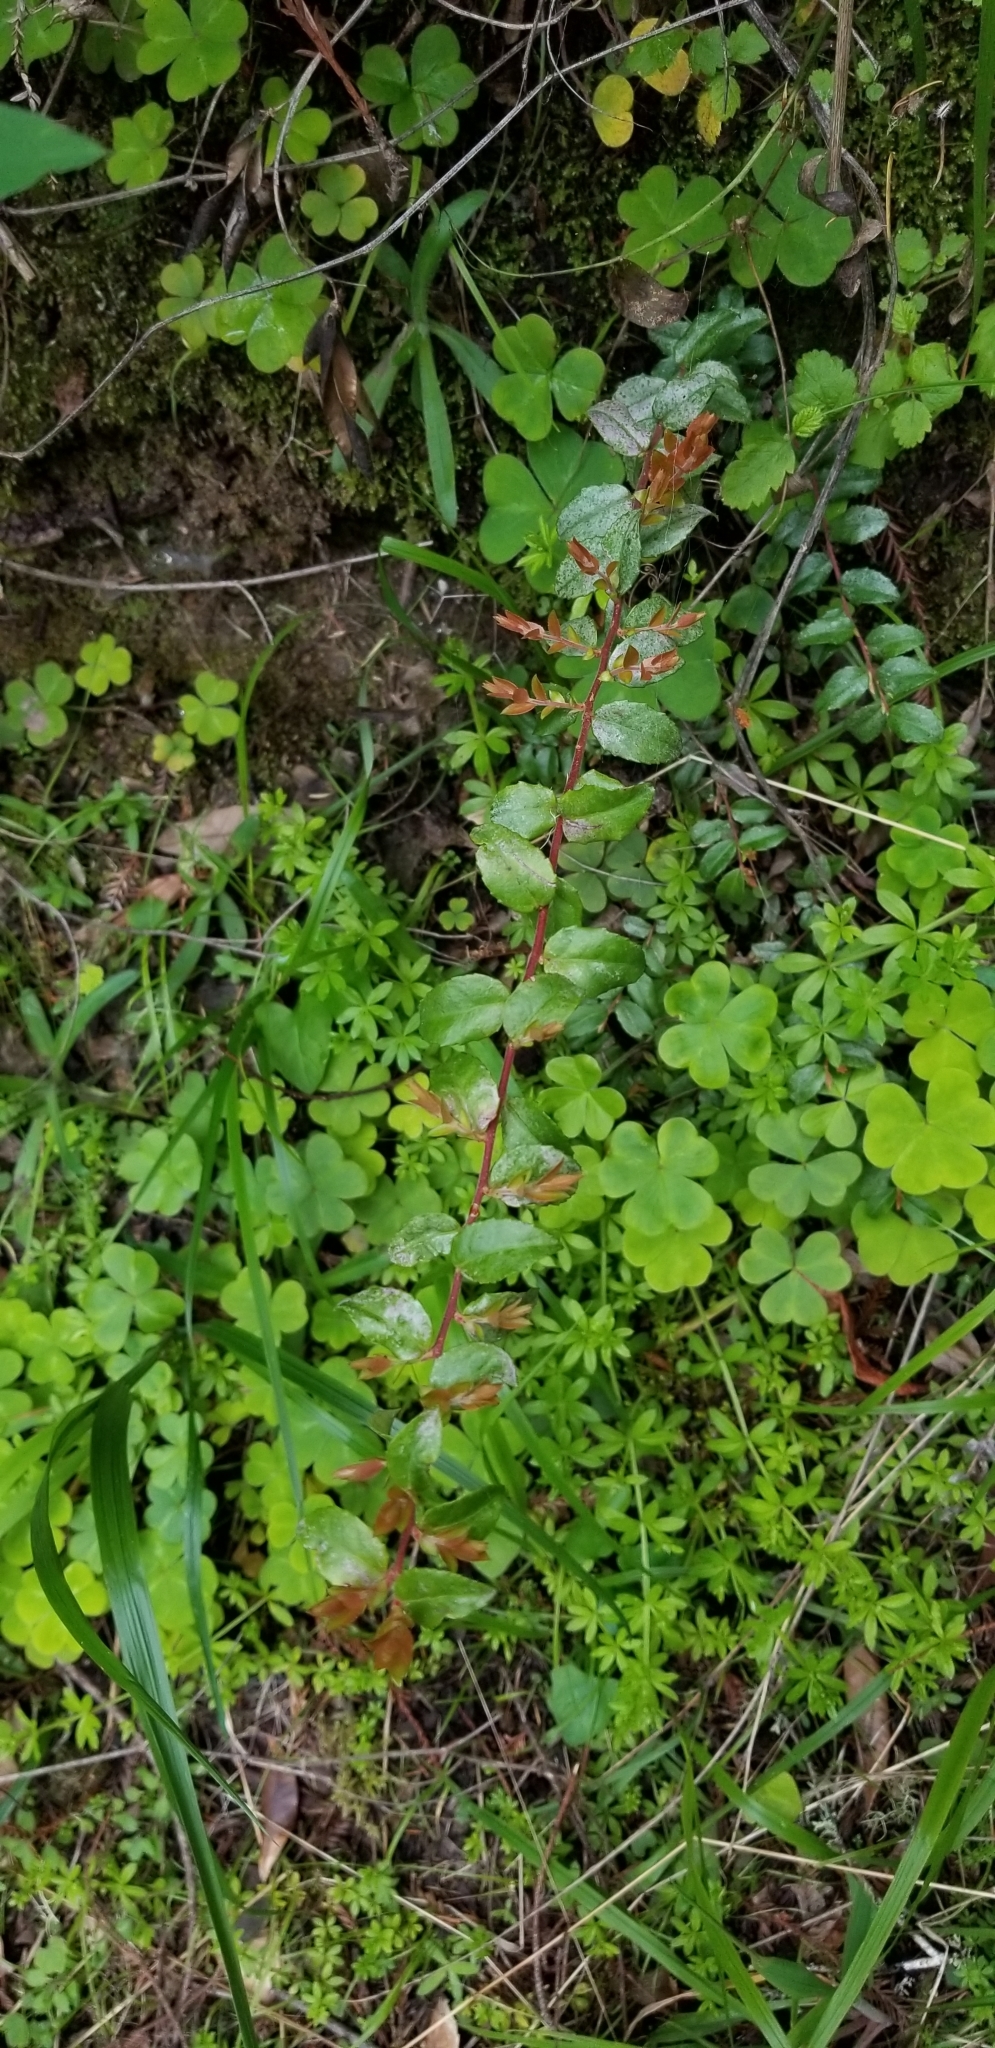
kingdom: Plantae
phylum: Tracheophyta
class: Magnoliopsida
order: Ericales
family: Ericaceae
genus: Vaccinium
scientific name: Vaccinium ovatum
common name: California-huckleberry
